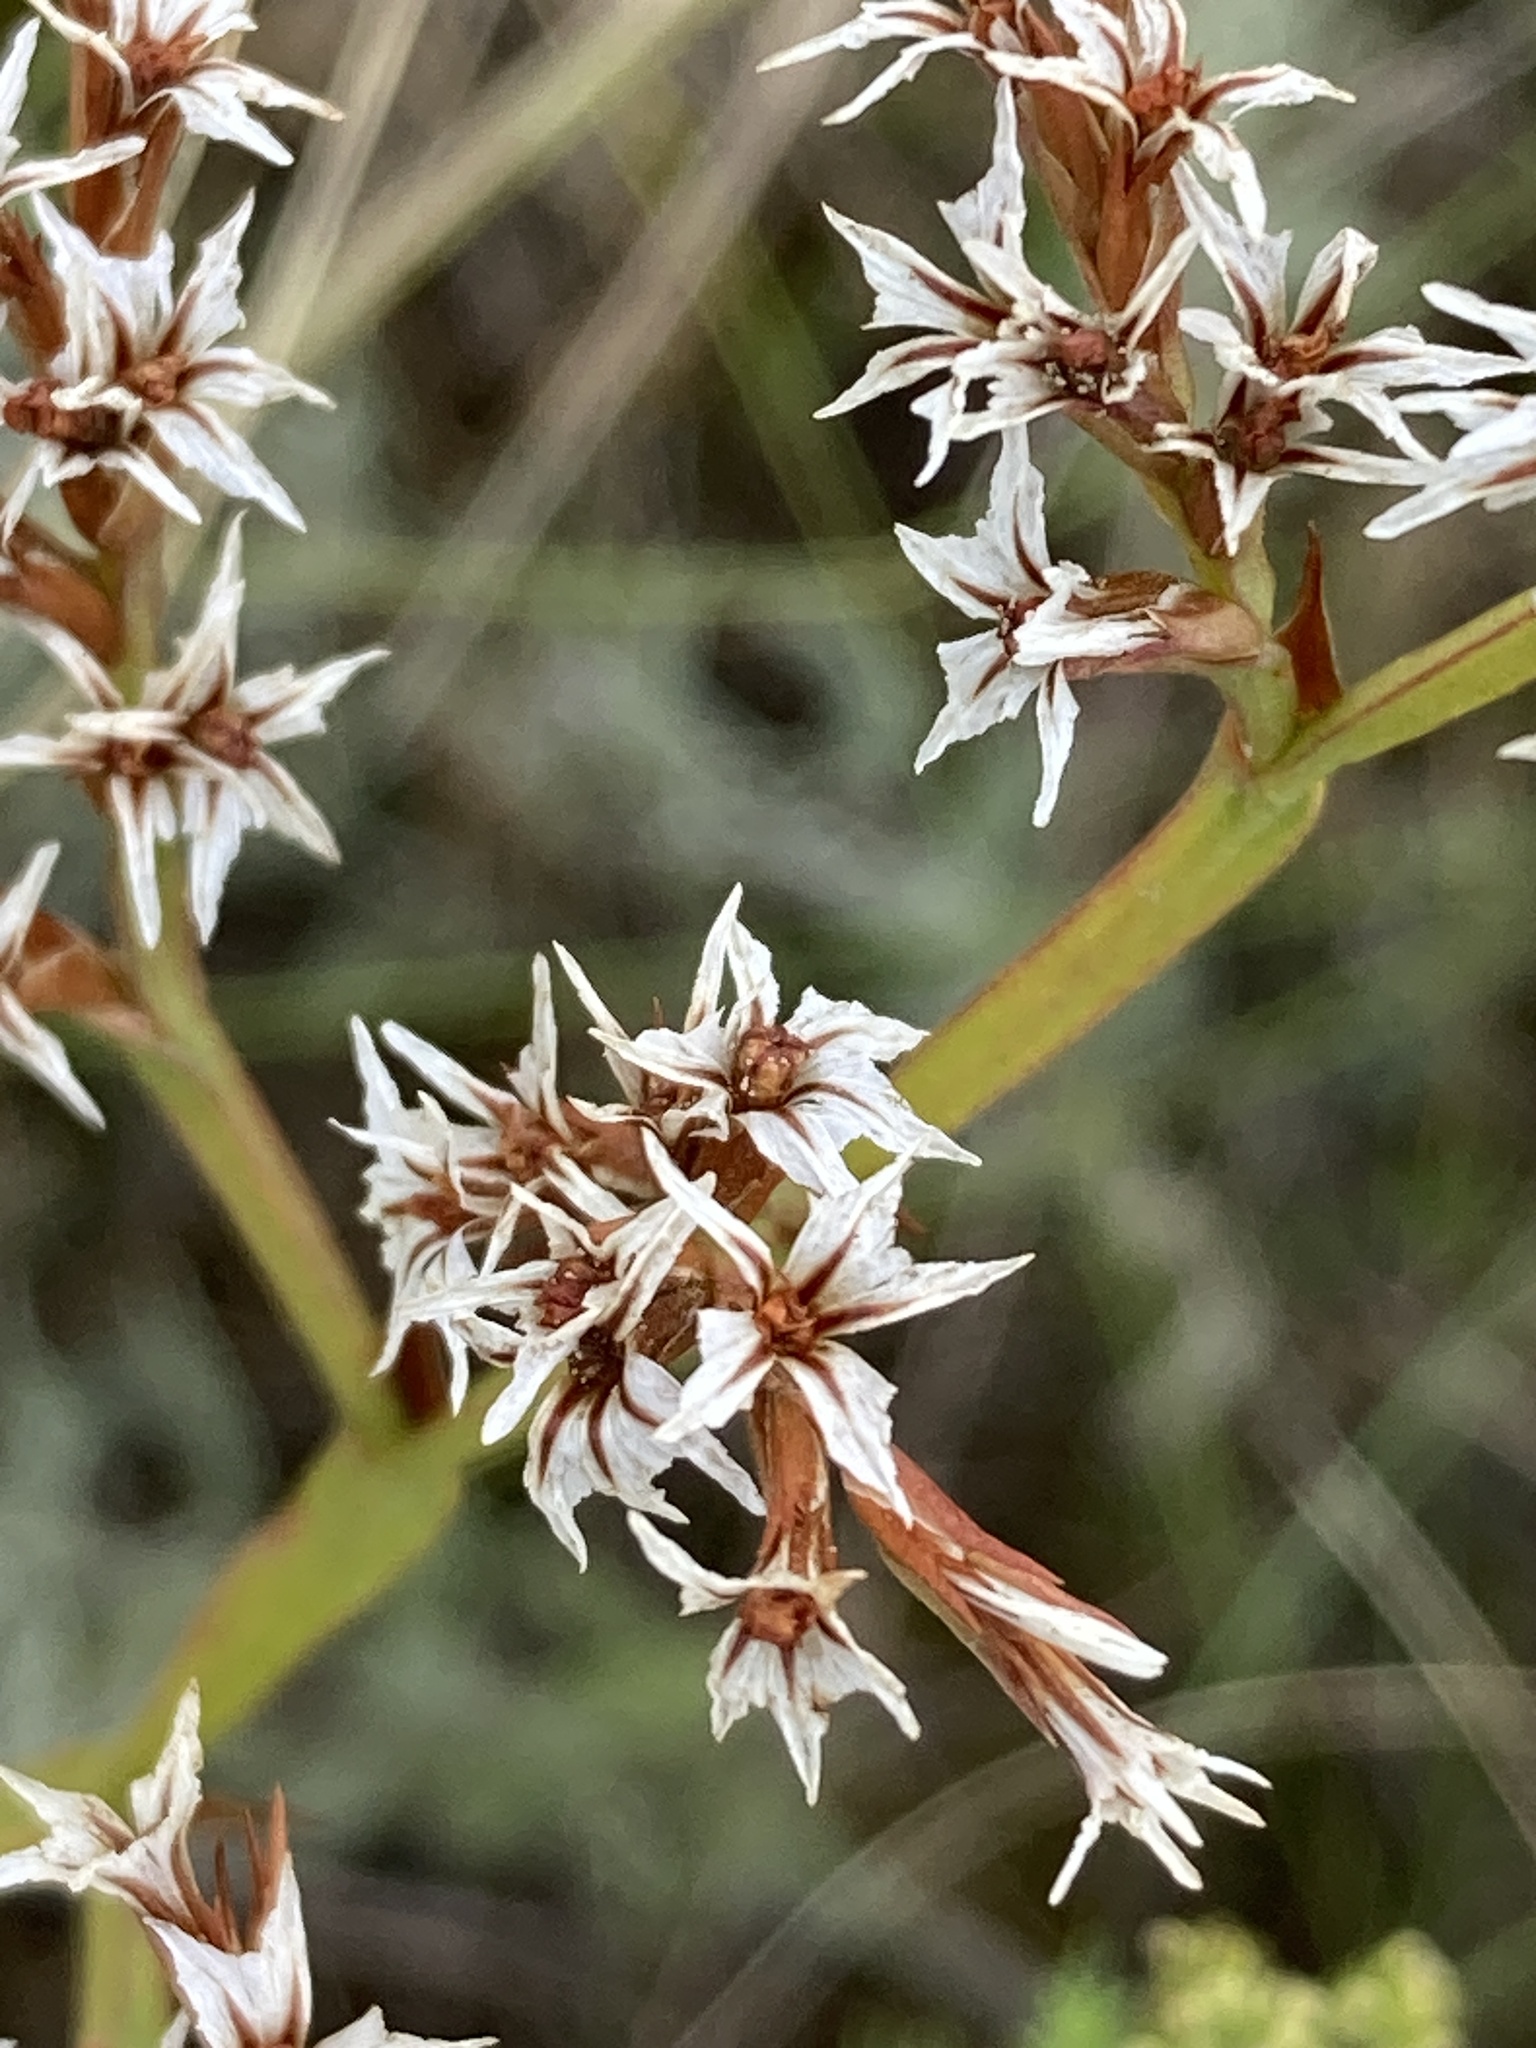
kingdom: Plantae
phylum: Tracheophyta
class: Magnoliopsida
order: Caryophyllales
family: Plumbaginaceae
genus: Goniolimon
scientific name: Goniolimon tataricum
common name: Statice
